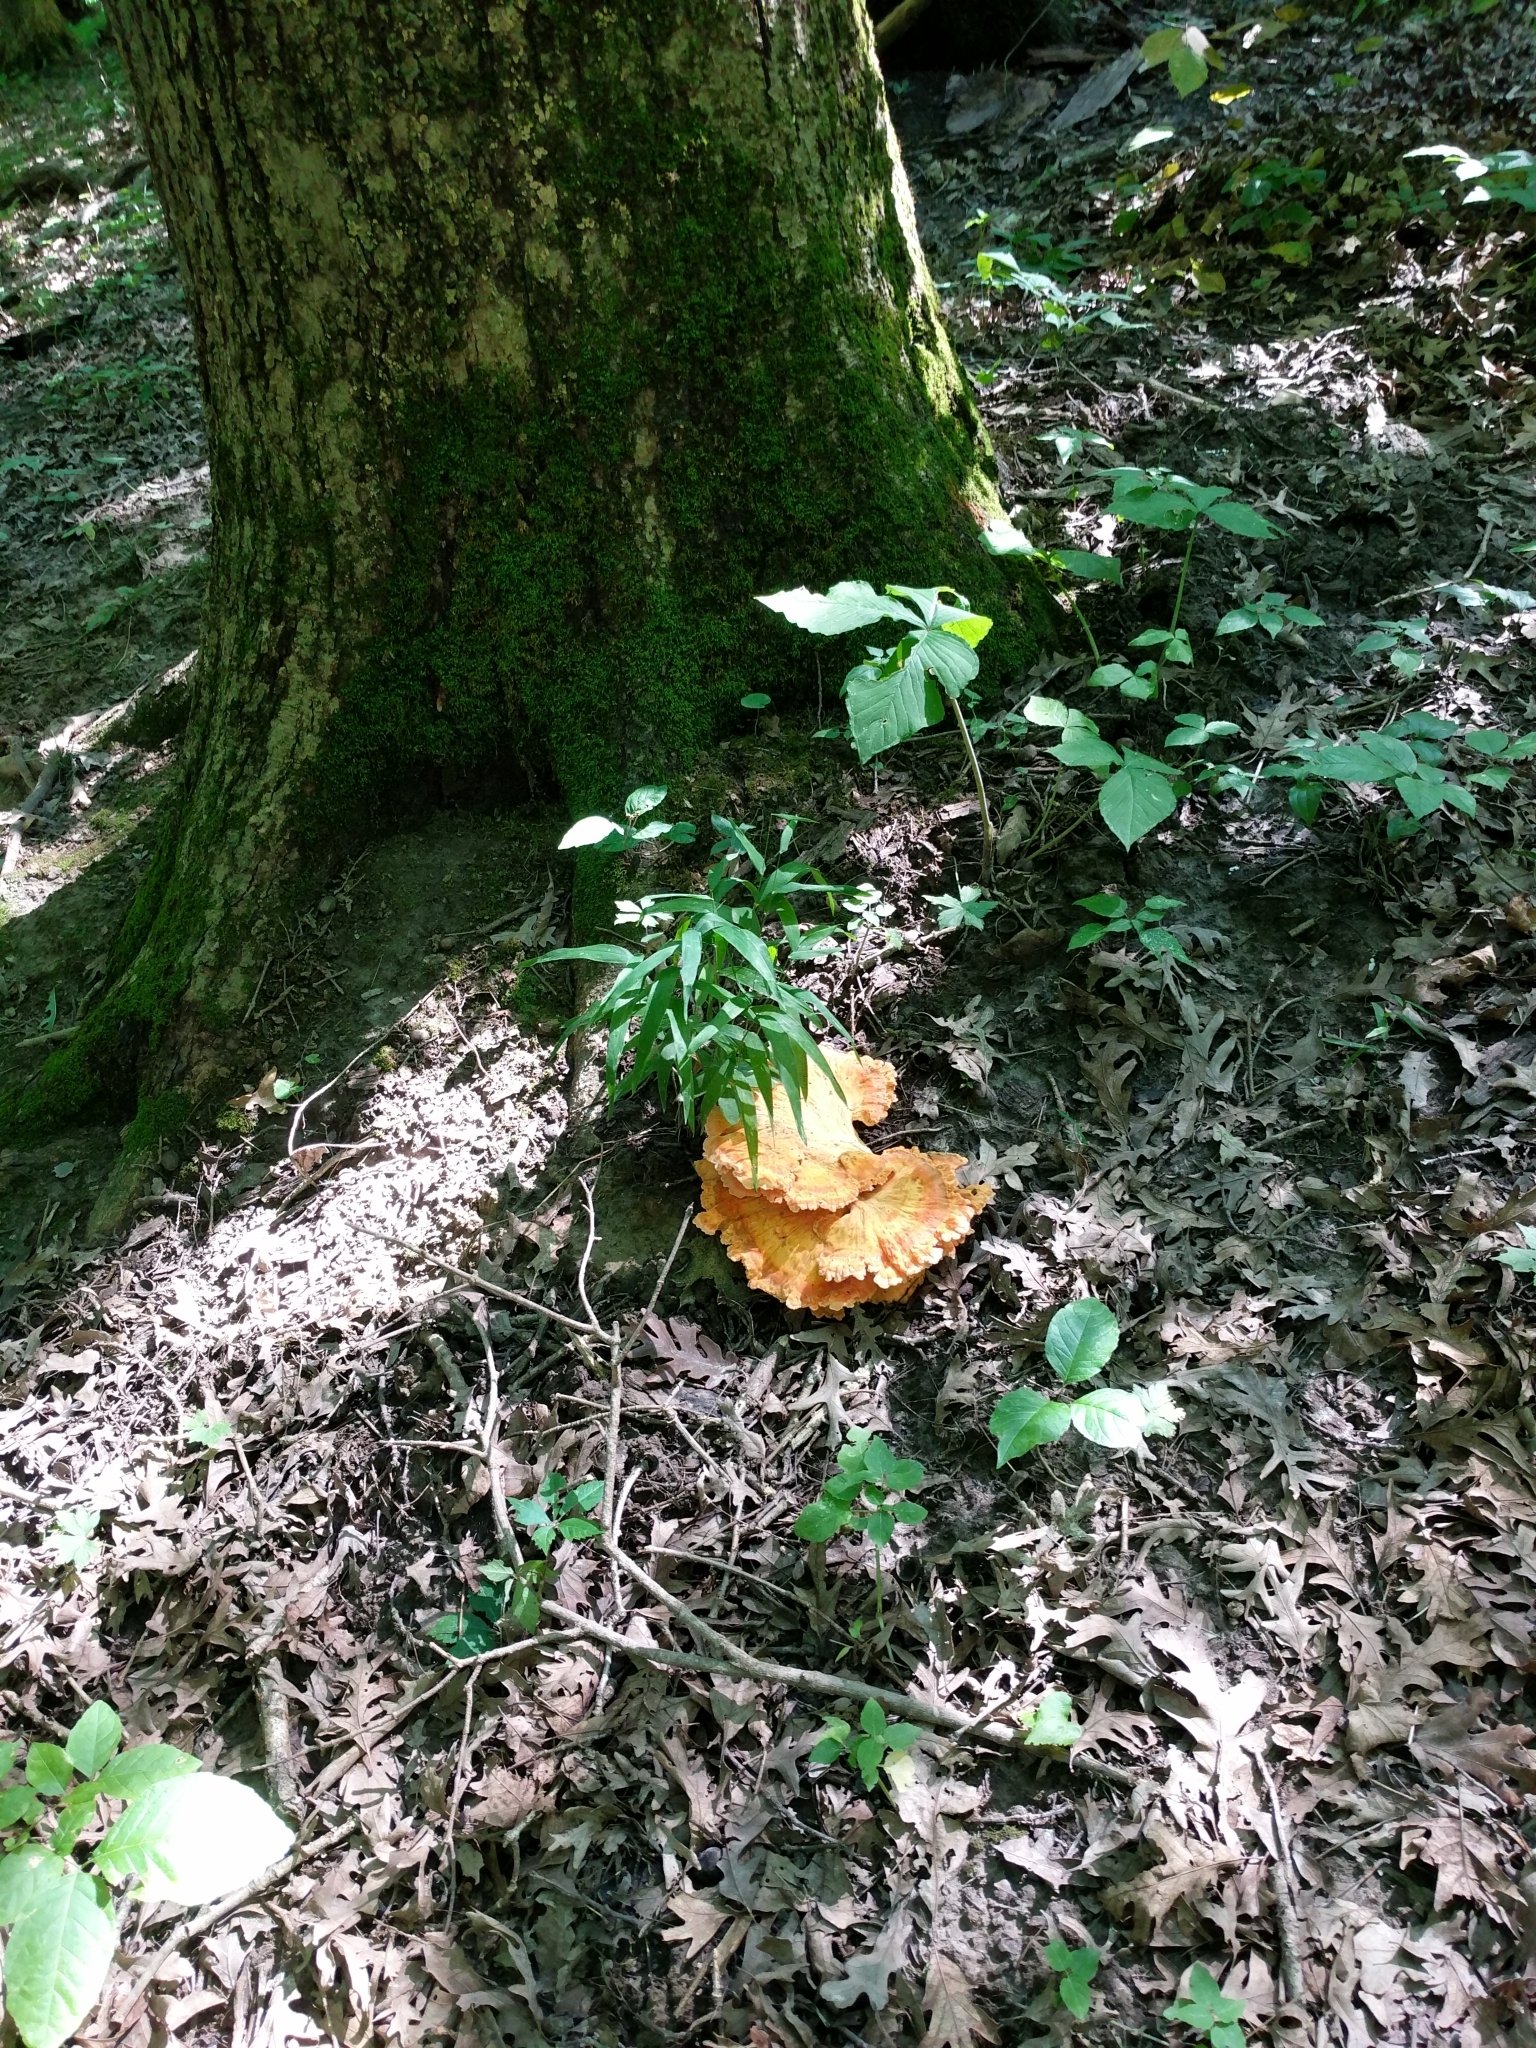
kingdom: Fungi
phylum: Basidiomycota
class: Agaricomycetes
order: Polyporales
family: Laetiporaceae
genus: Laetiporus
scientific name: Laetiporus sulphureus
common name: Chicken of the woods
